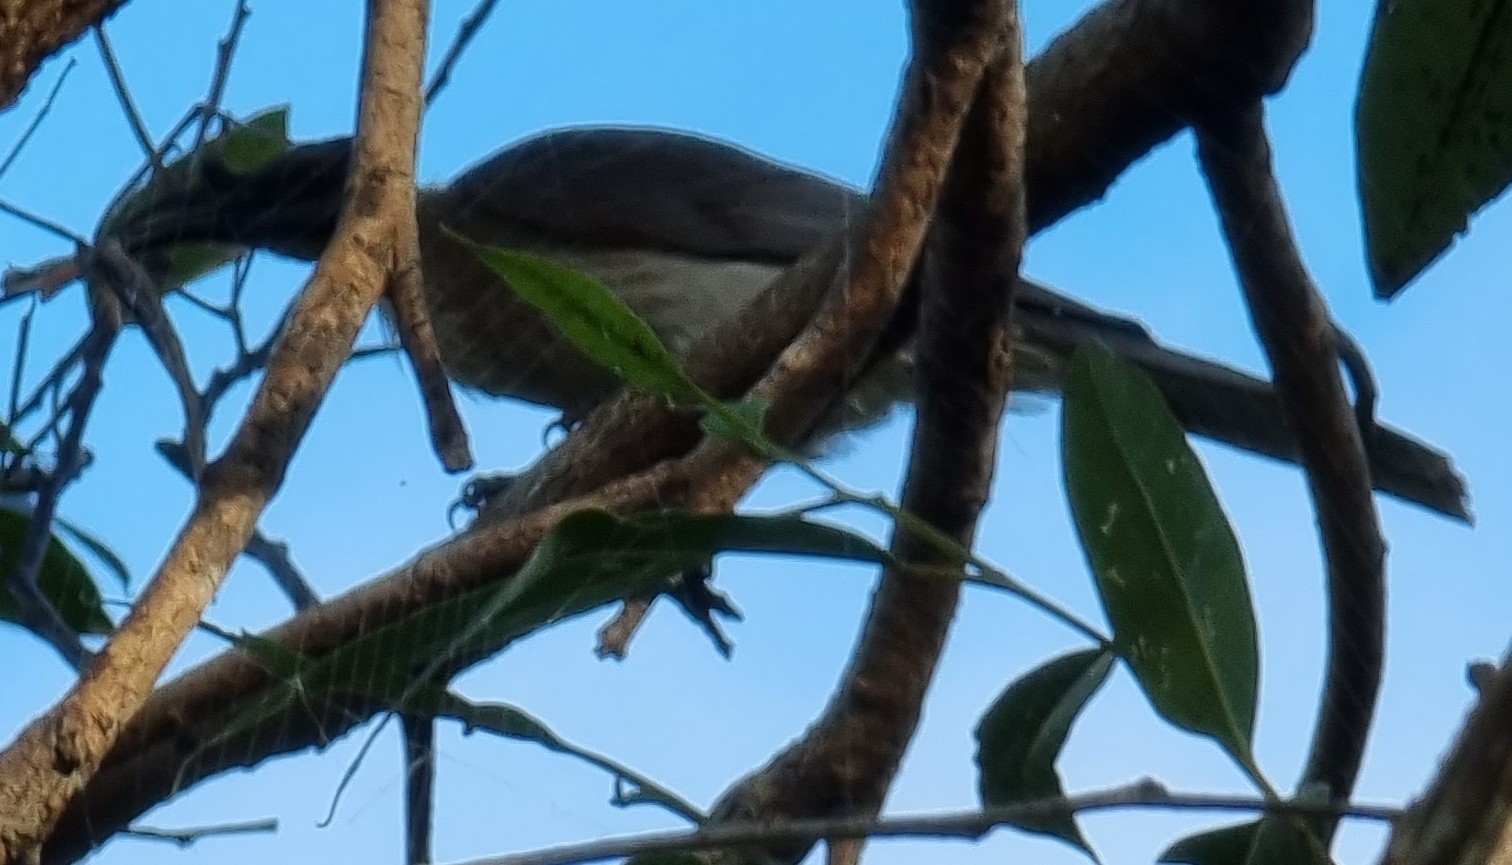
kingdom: Animalia
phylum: Chordata
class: Aves
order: Passeriformes
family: Meliphagidae
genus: Philemon
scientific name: Philemon corniculatus
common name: Noisy friarbird
